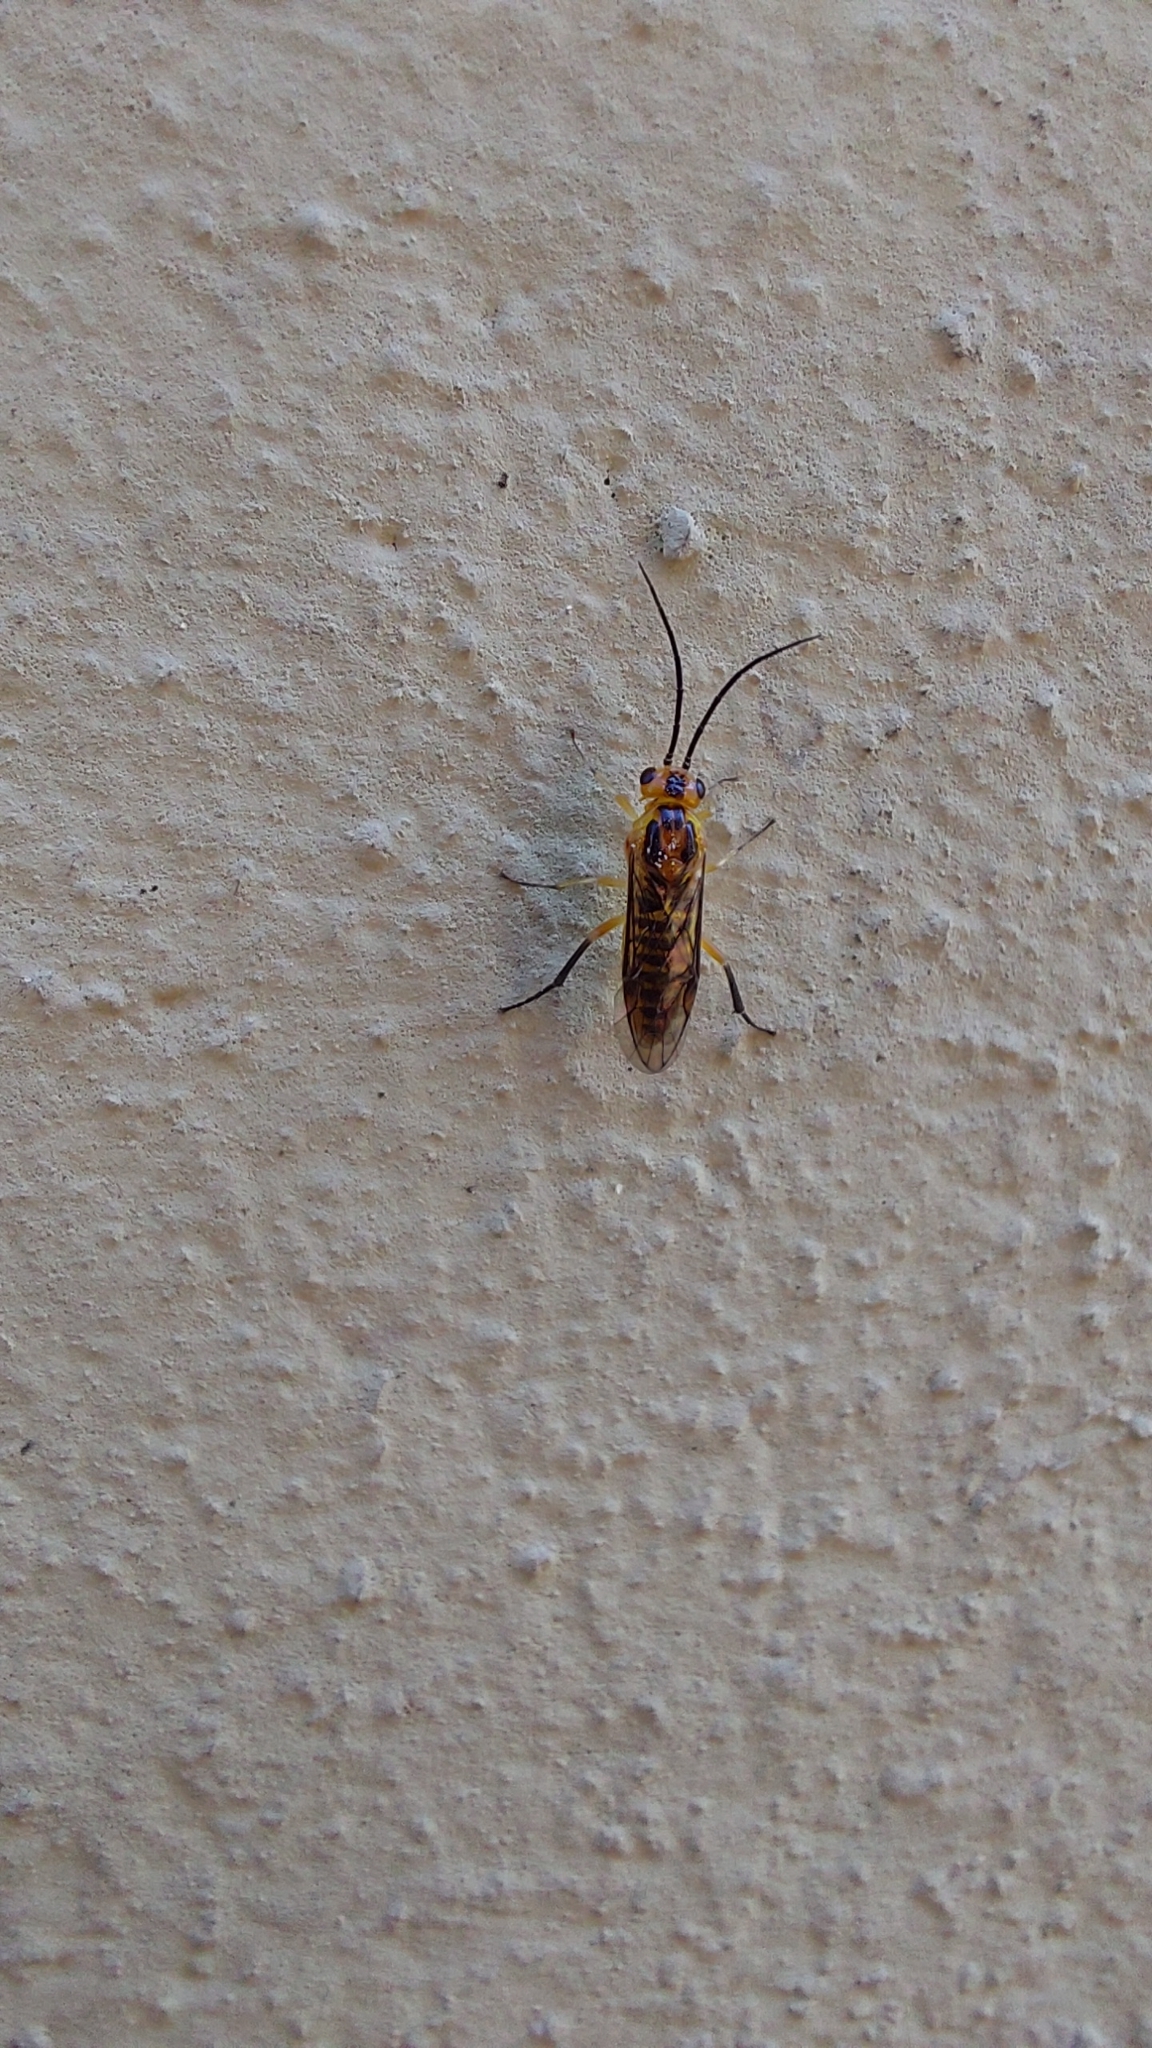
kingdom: Animalia
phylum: Arthropoda
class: Insecta
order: Hymenoptera
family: Tenthredinidae
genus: Euura
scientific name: Euura tibialis
